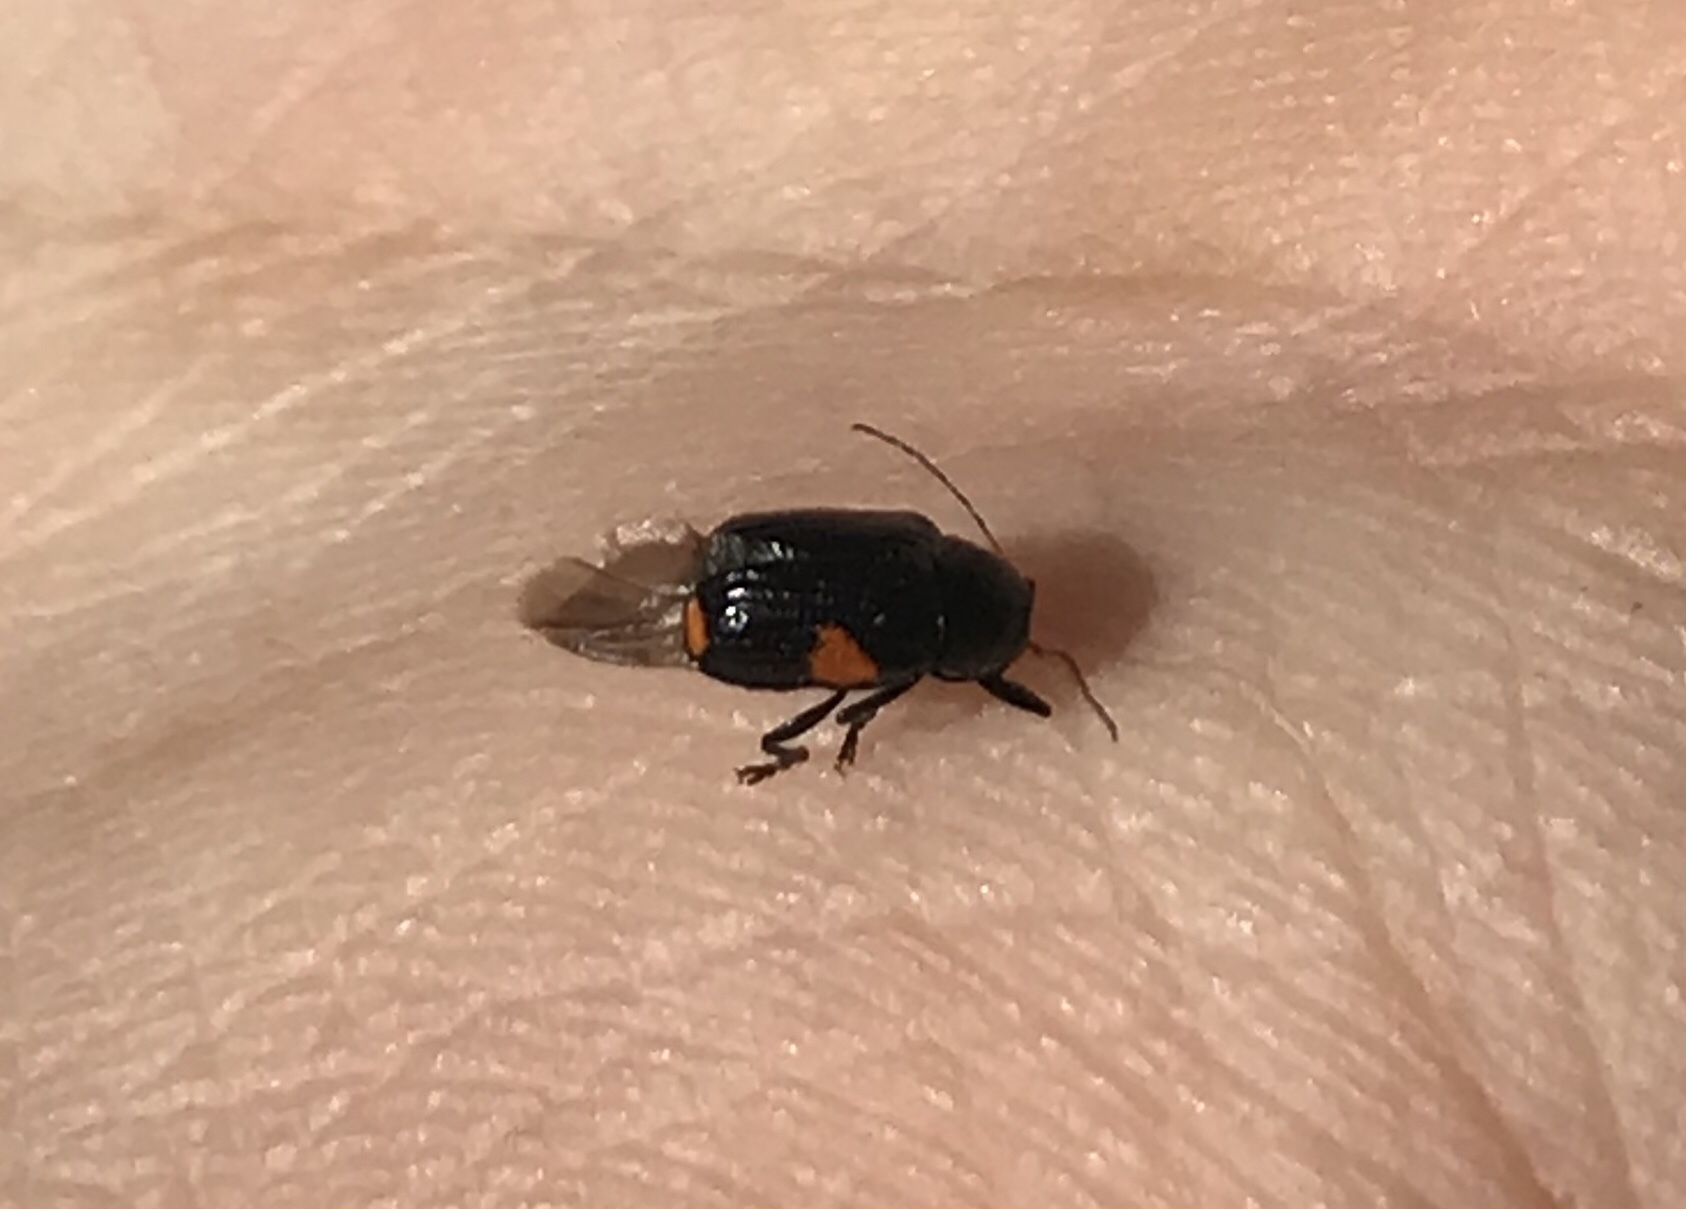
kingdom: Animalia
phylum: Arthropoda
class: Insecta
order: Coleoptera
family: Chrysomelidae
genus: Bassareus
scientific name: Bassareus mammifer
